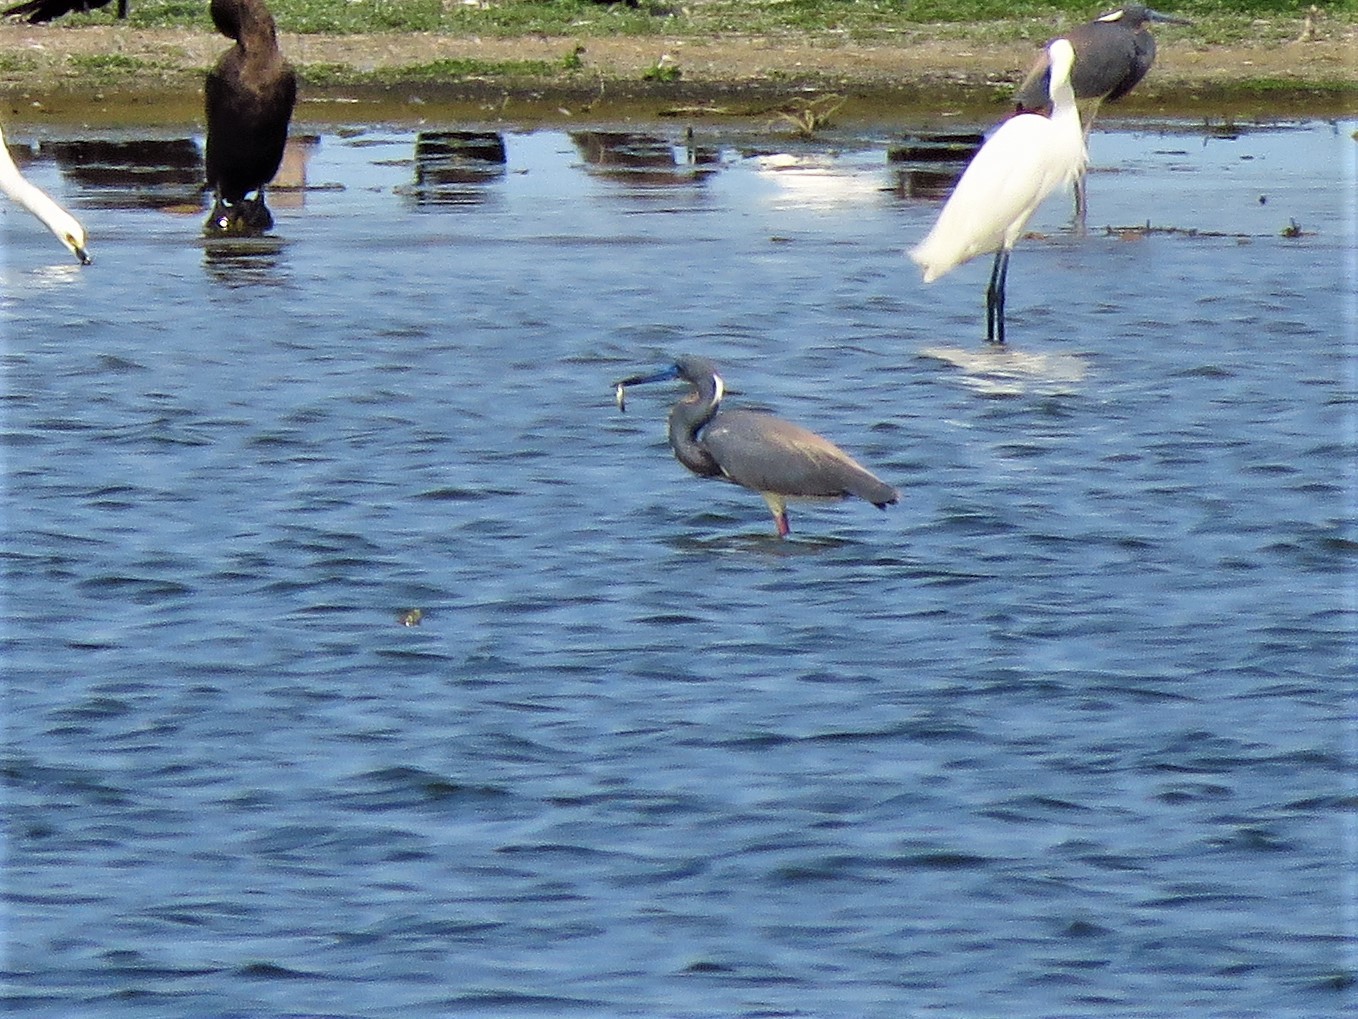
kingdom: Animalia
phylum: Chordata
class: Aves
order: Pelecaniformes
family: Ardeidae
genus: Egretta
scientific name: Egretta tricolor
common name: Tricolored heron
